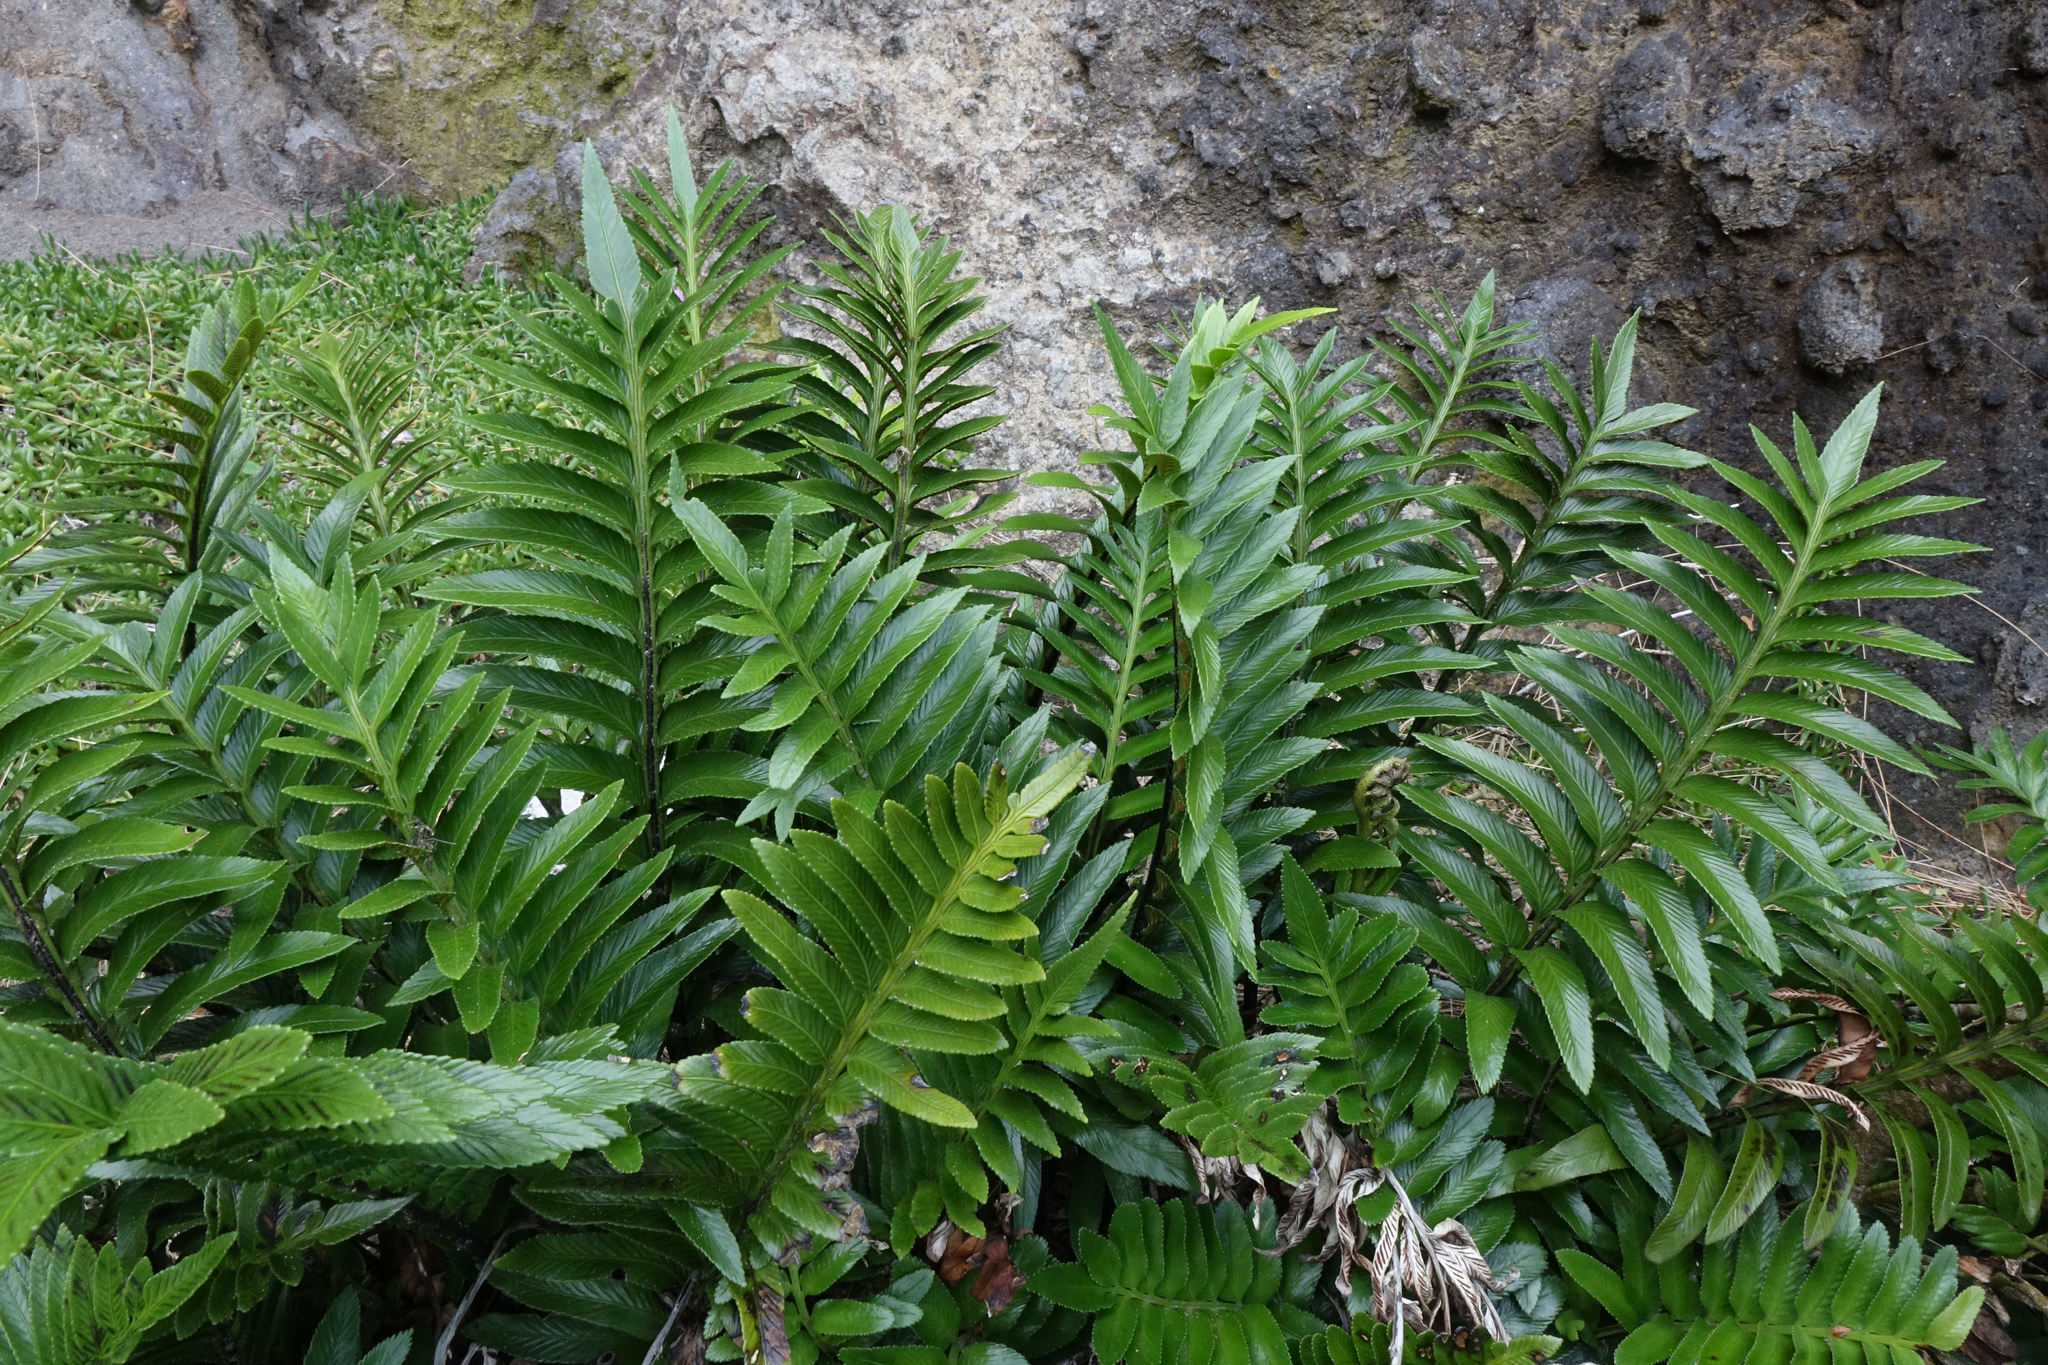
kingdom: Plantae
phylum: Tracheophyta
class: Polypodiopsida
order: Polypodiales
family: Aspleniaceae
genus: Asplenium
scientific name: Asplenium obtusatum
